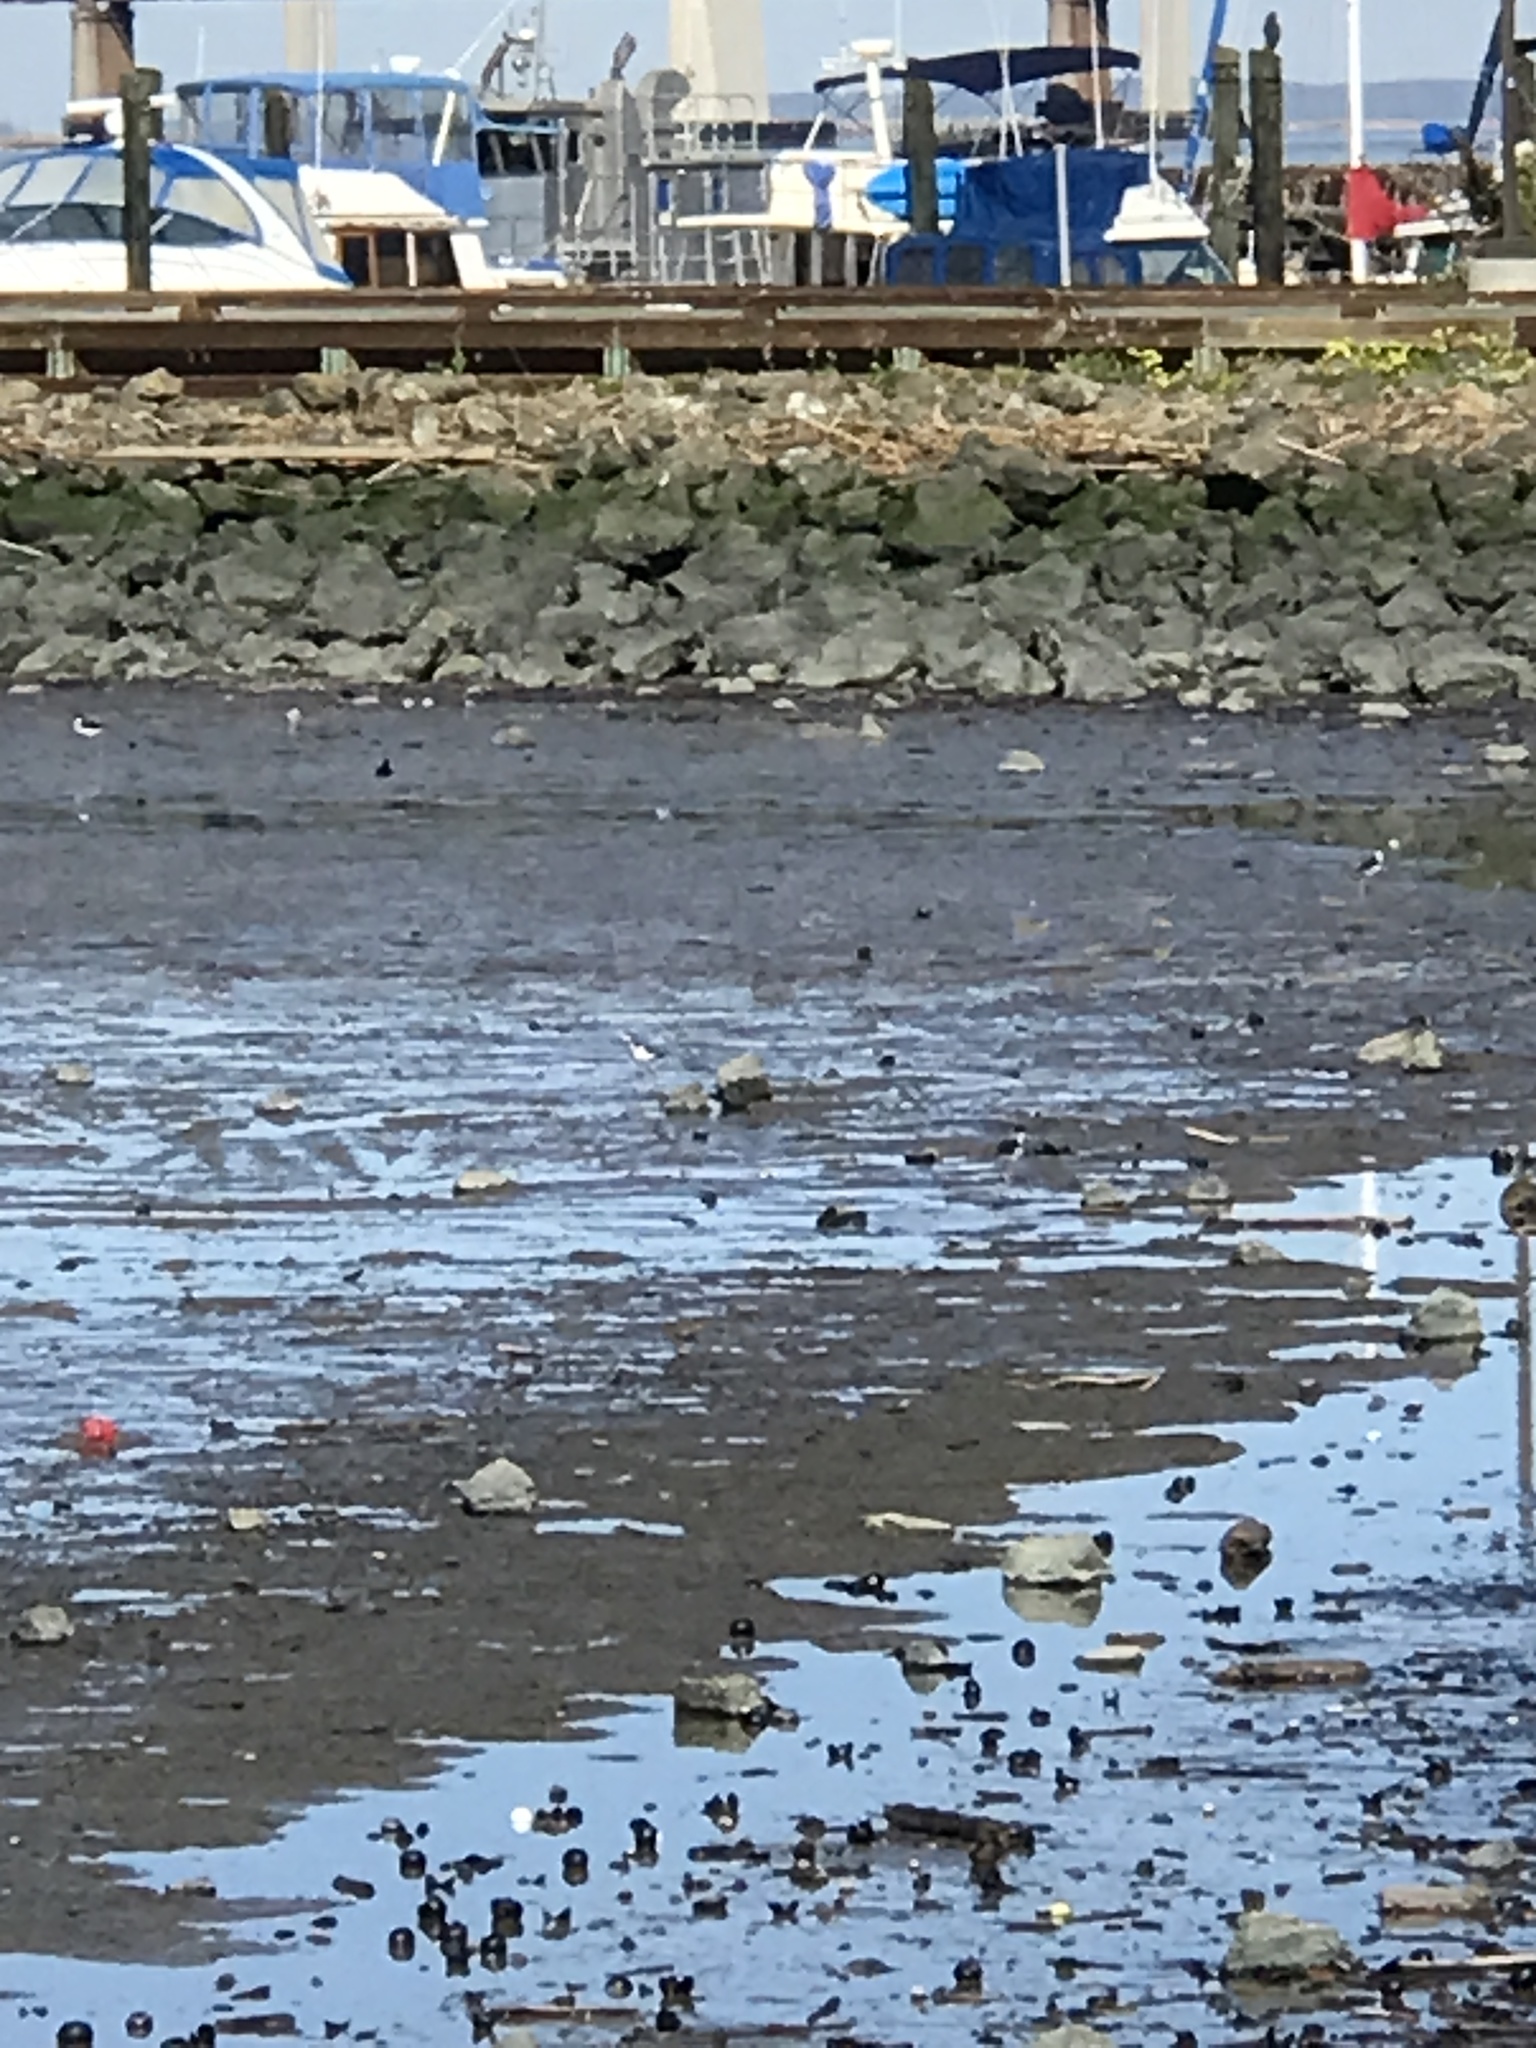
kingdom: Animalia
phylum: Chordata
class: Aves
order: Charadriiformes
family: Recurvirostridae
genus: Himantopus
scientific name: Himantopus mexicanus
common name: Black-necked stilt
